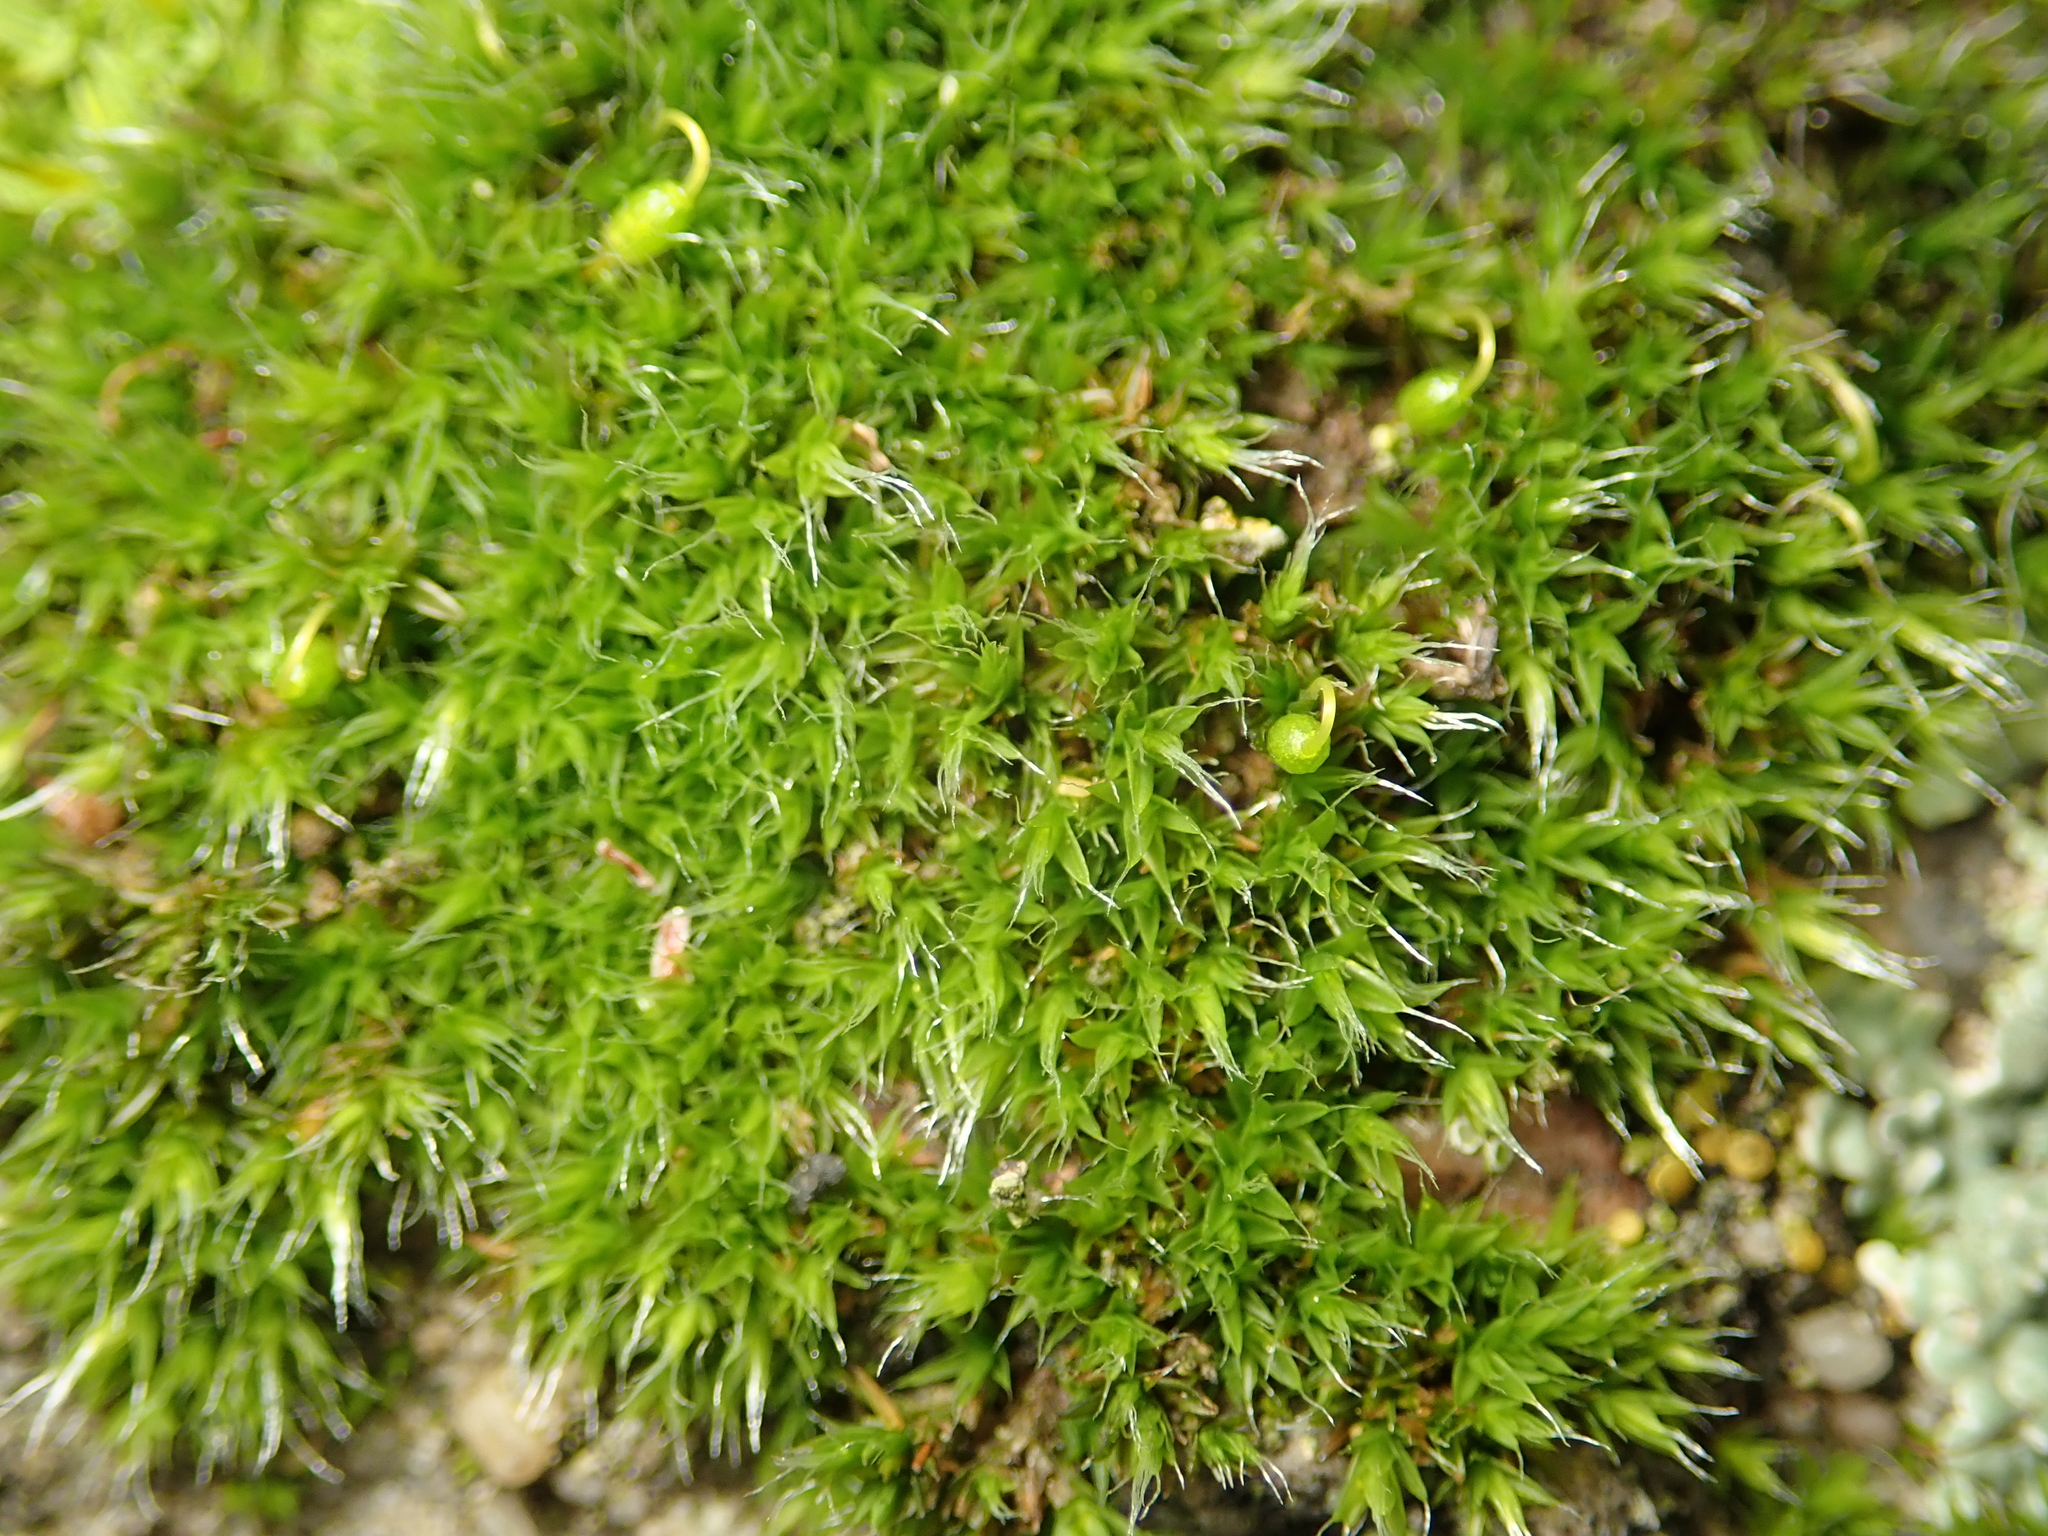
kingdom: Plantae
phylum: Bryophyta
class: Bryopsida
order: Grimmiales
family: Grimmiaceae
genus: Grimmia
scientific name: Grimmia pulvinata
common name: Grey-cushioned grimmia
